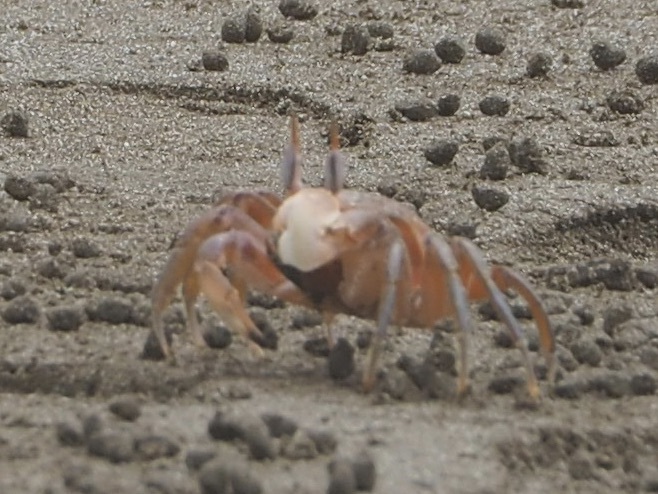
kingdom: Animalia
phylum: Arthropoda
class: Malacostraca
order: Decapoda
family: Ocypodidae
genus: Ocypode
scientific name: Ocypode gaudichaudii
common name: Pacific ghost crab
